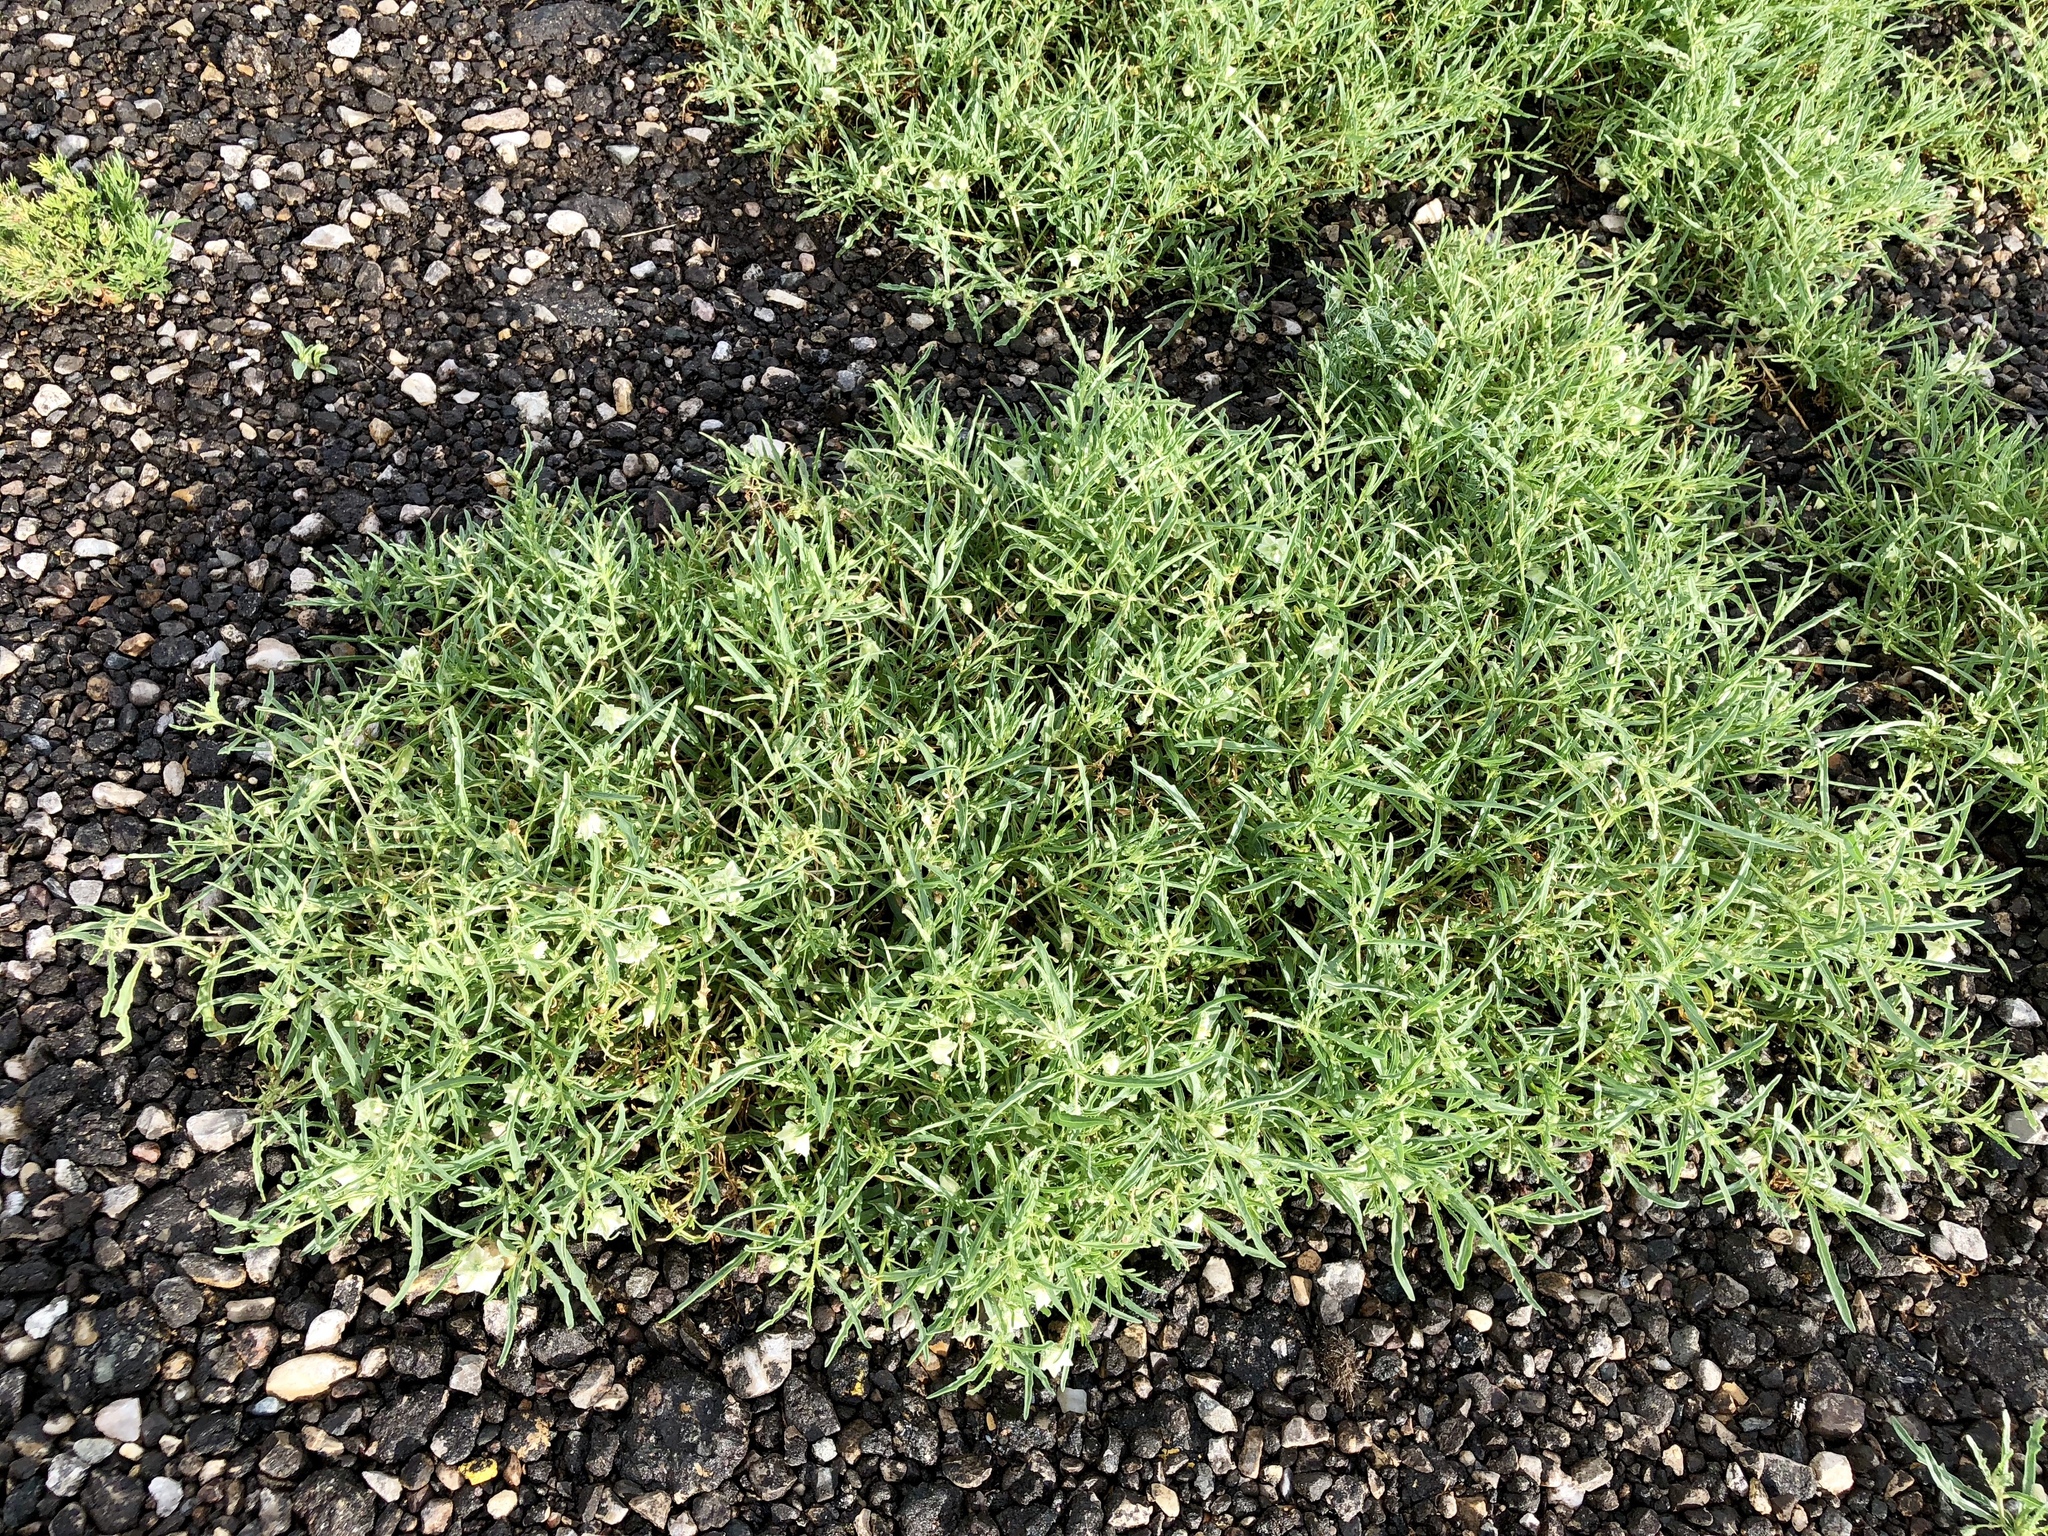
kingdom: Plantae
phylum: Tracheophyta
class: Magnoliopsida
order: Solanales
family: Solanaceae
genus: Chamaesaracha
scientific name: Chamaesaracha coronopus
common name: Smooth chamaesaracha
